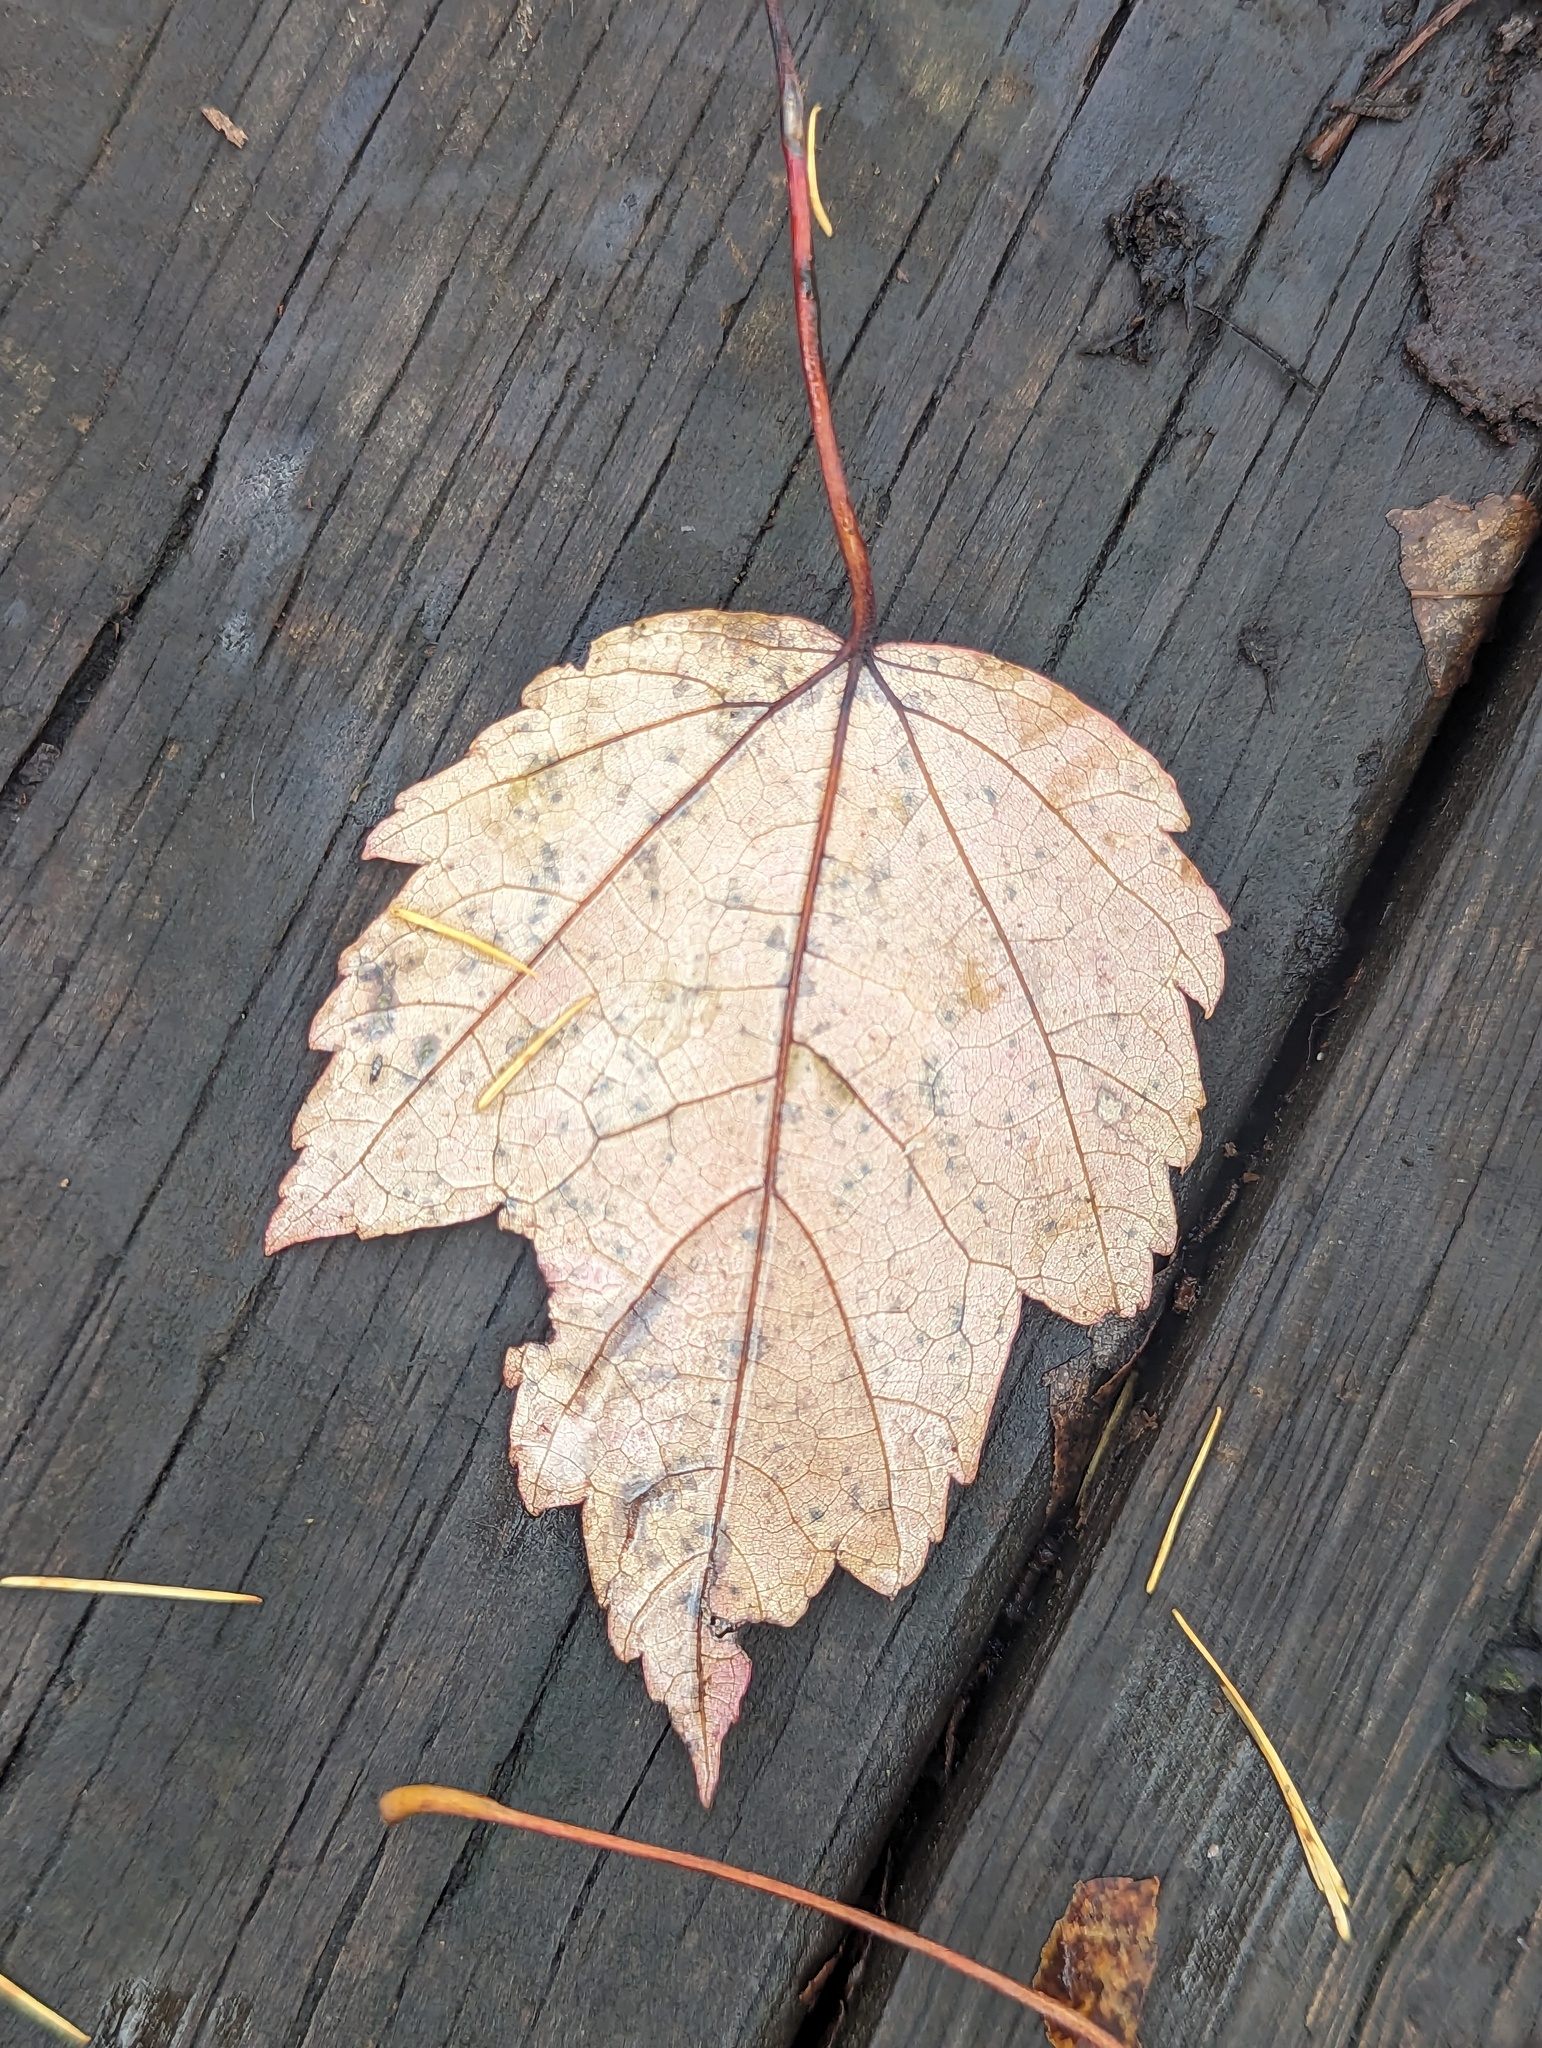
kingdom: Plantae
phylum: Tracheophyta
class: Magnoliopsida
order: Sapindales
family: Sapindaceae
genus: Acer
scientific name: Acer rubrum
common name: Red maple
